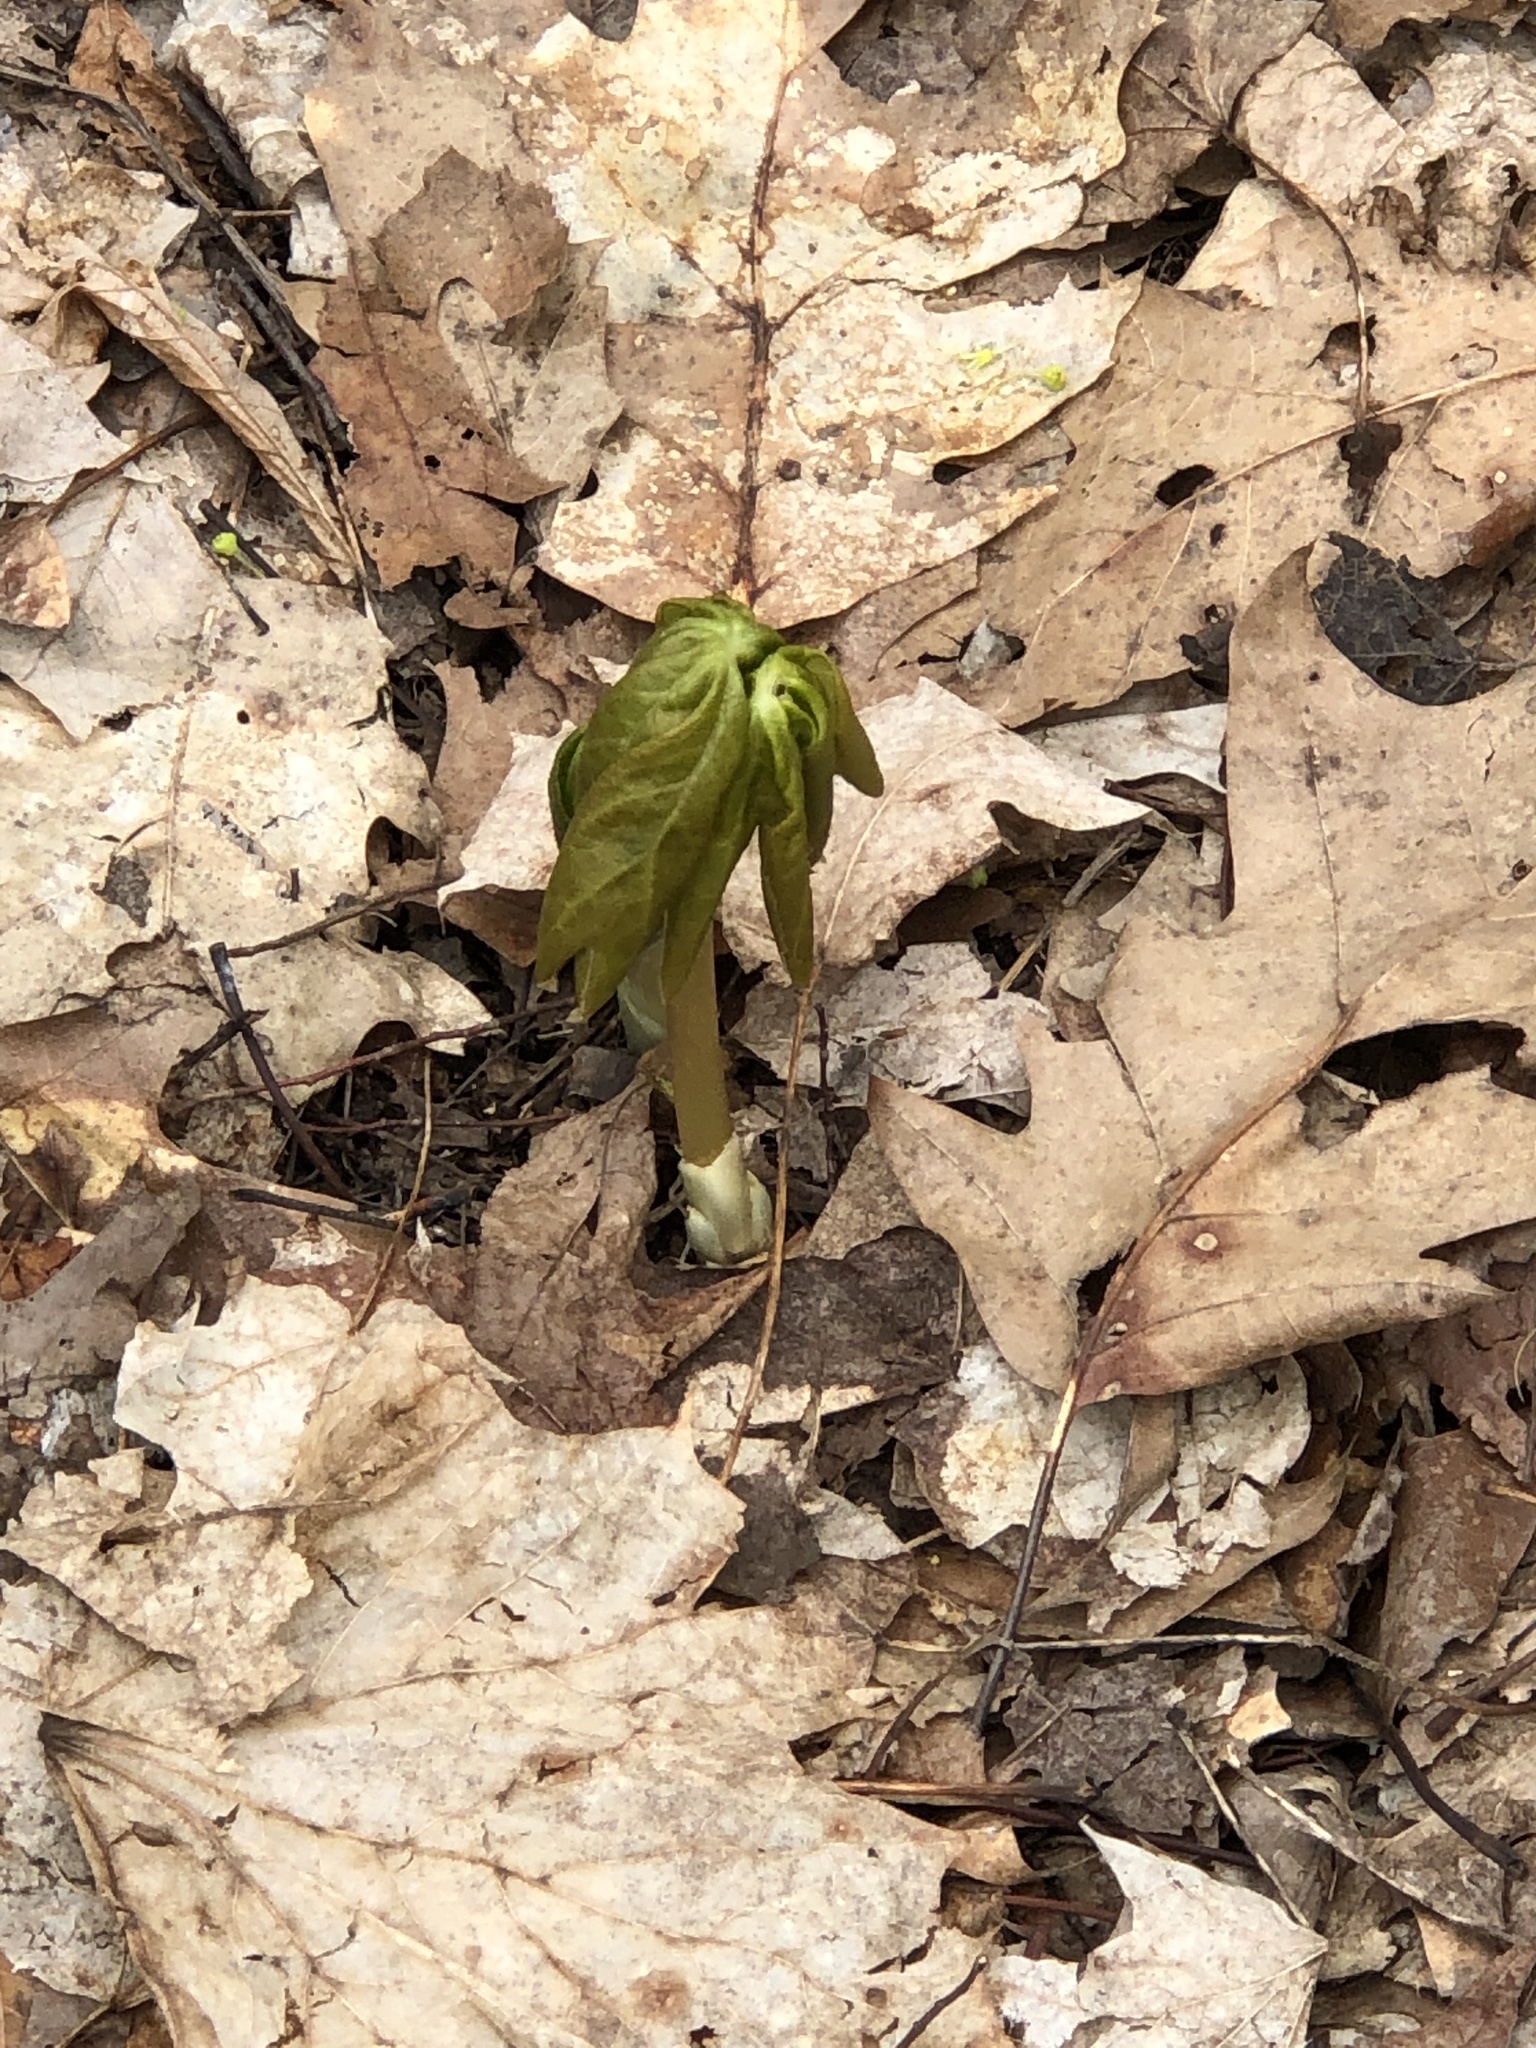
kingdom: Plantae
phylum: Tracheophyta
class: Magnoliopsida
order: Ranunculales
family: Berberidaceae
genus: Podophyllum
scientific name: Podophyllum peltatum
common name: Wild mandrake
